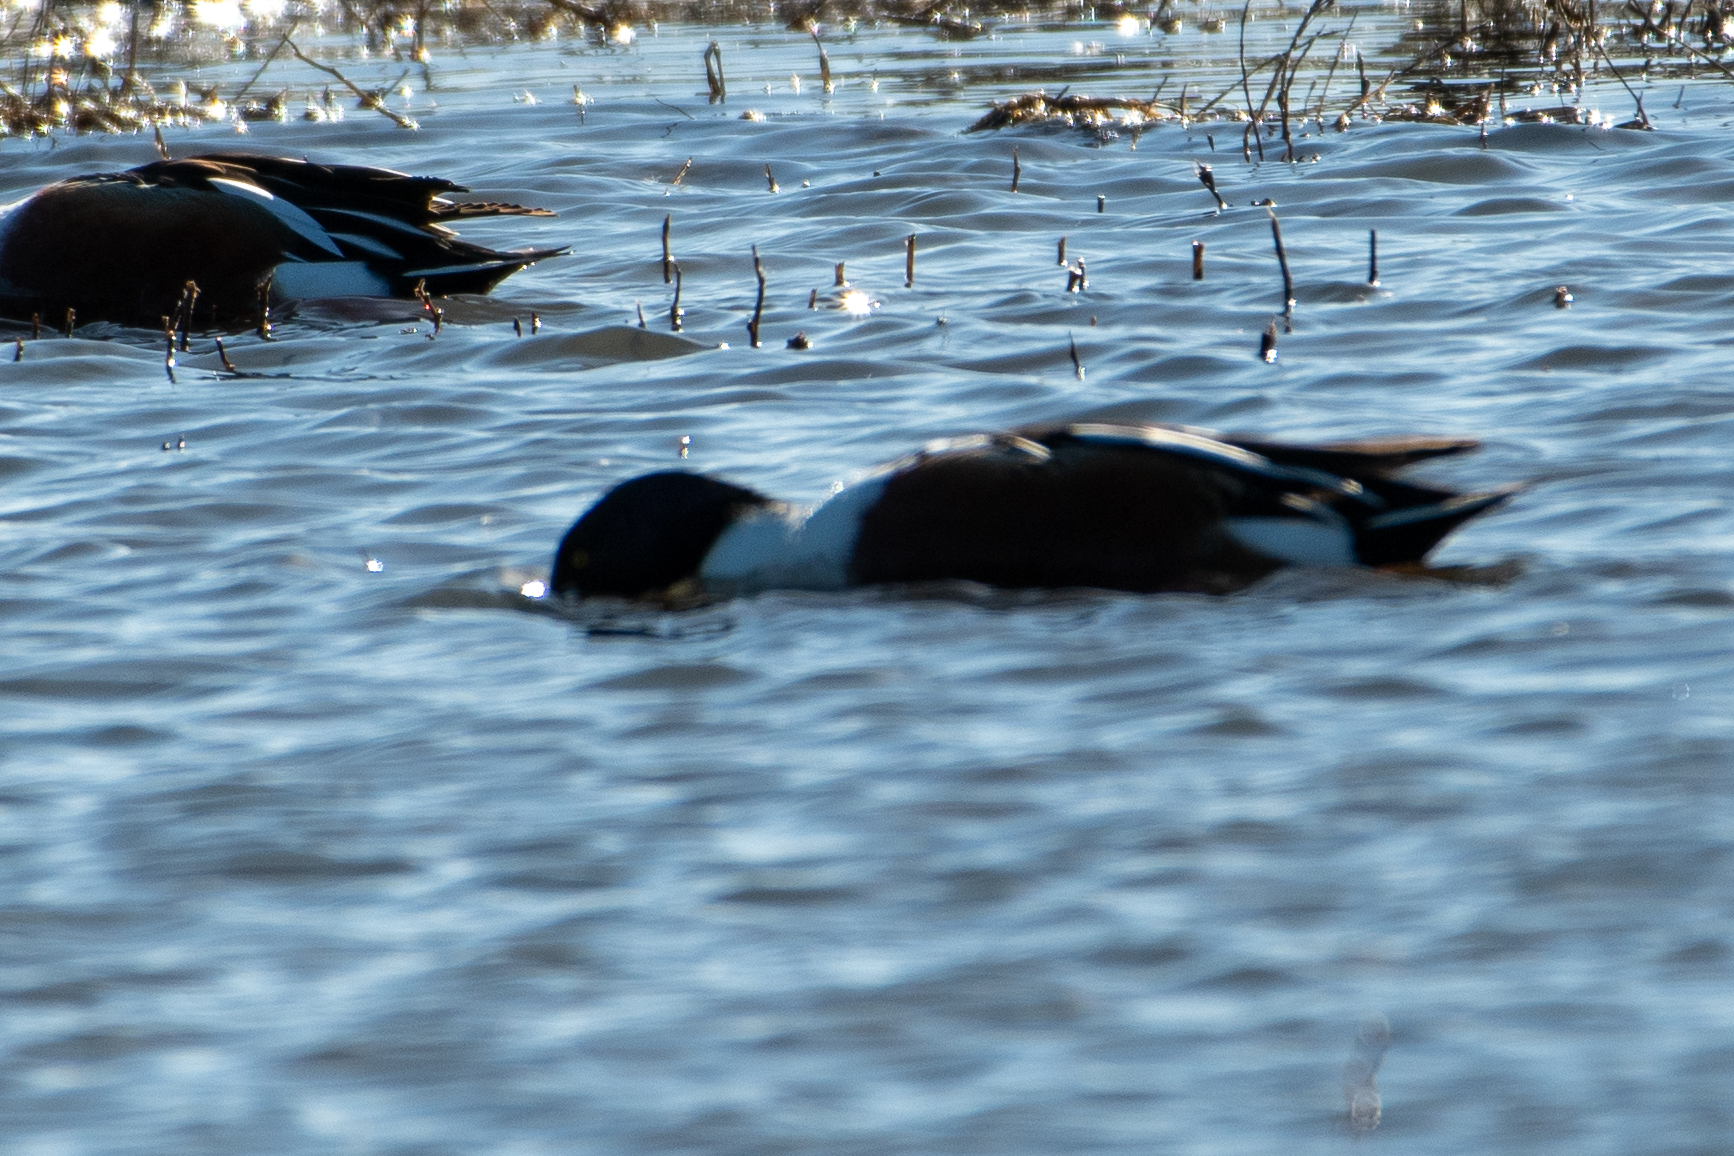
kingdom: Animalia
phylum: Chordata
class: Aves
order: Anseriformes
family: Anatidae
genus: Spatula
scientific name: Spatula clypeata
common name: Northern shoveler
